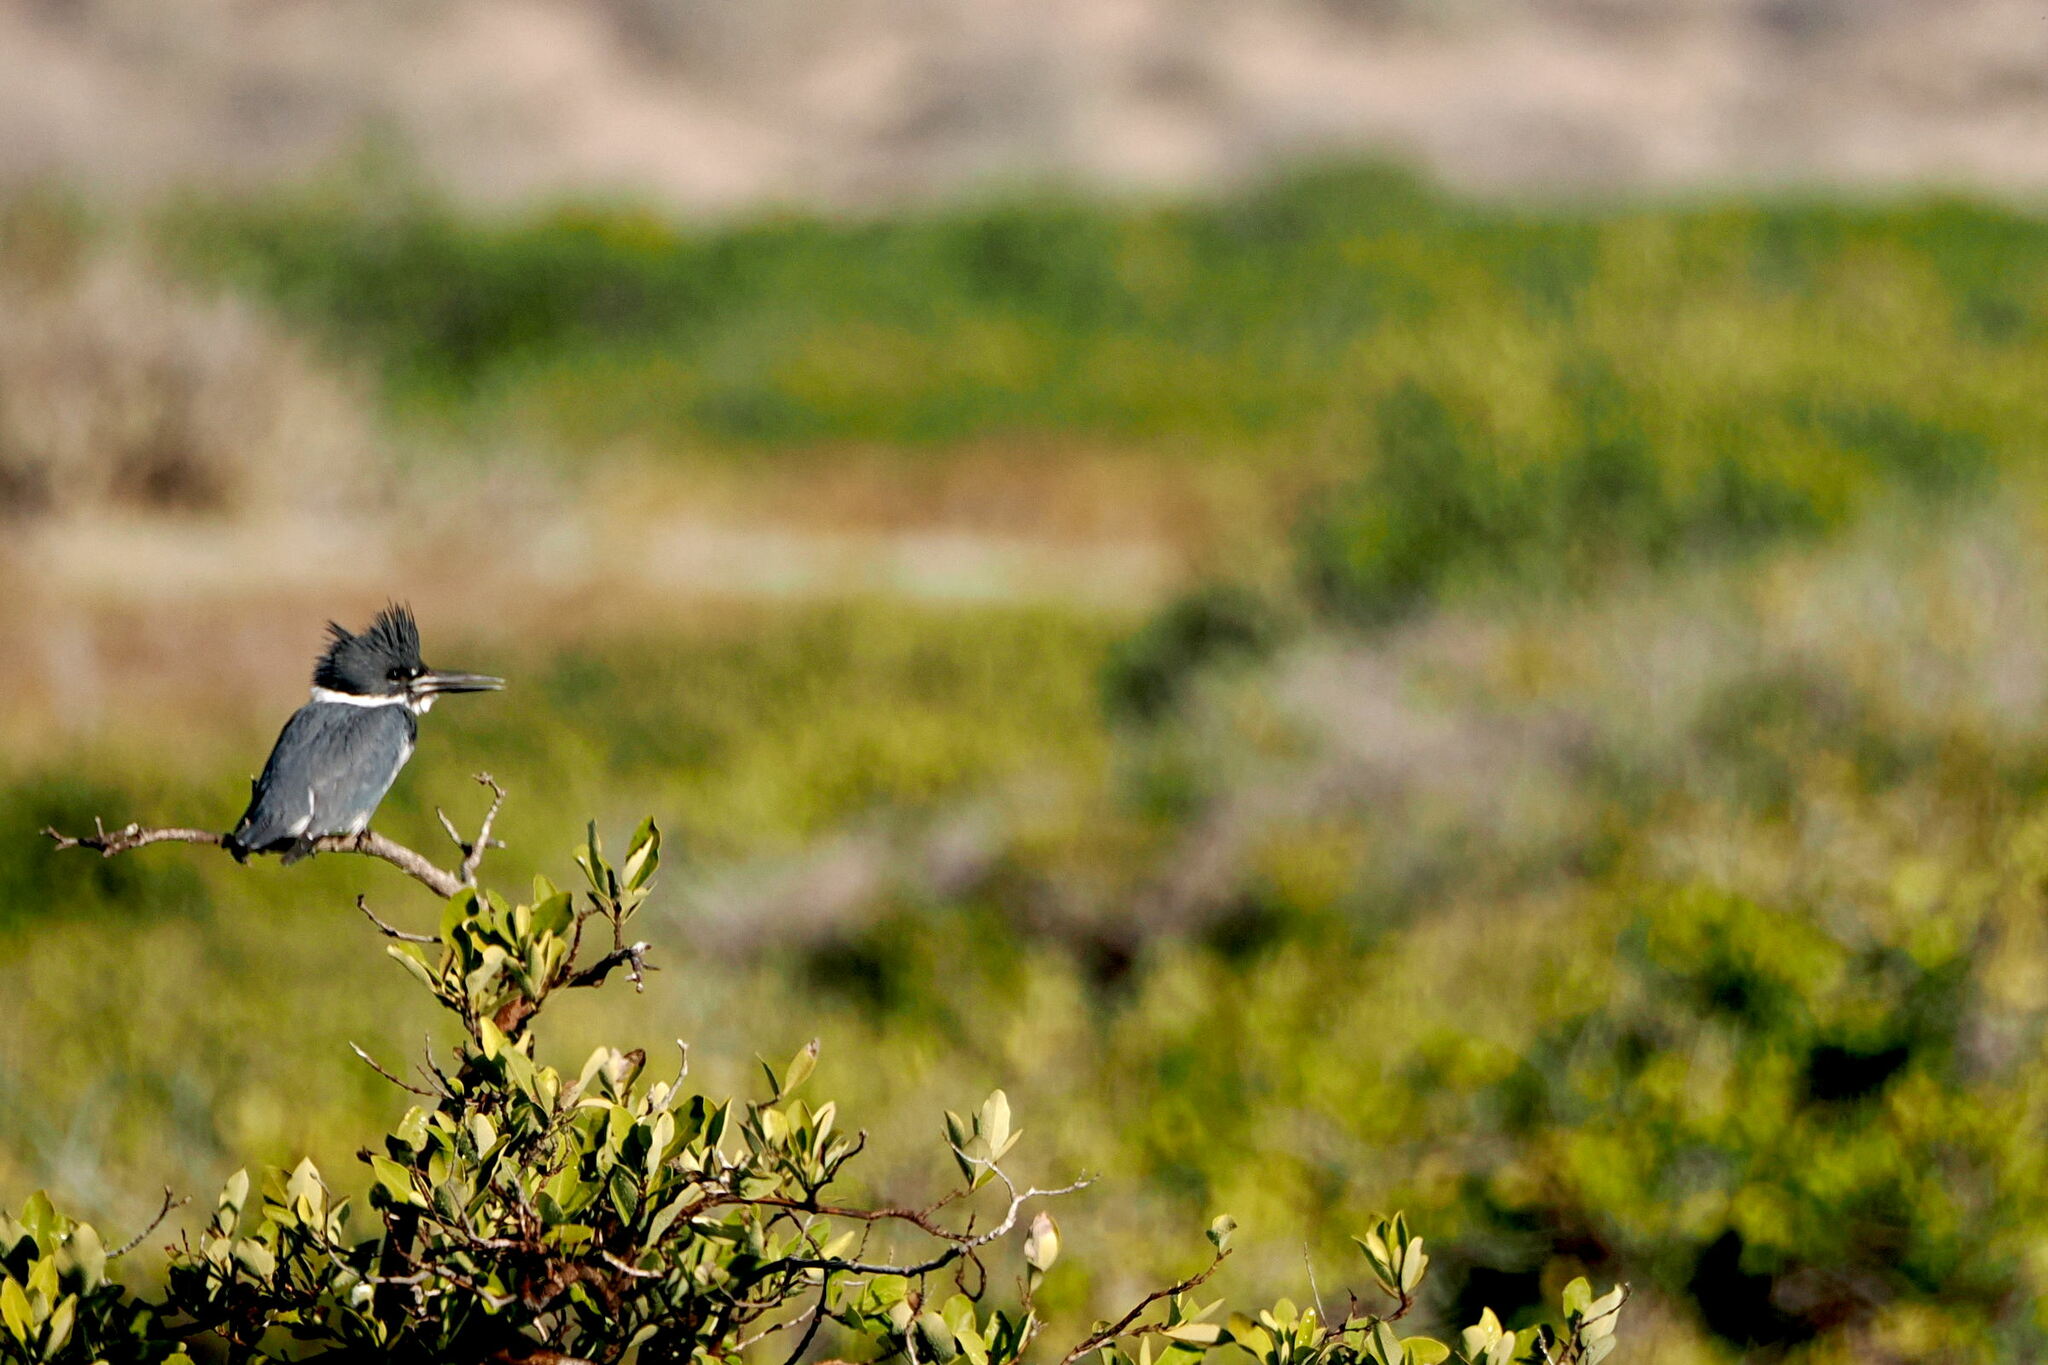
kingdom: Animalia
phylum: Chordata
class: Aves
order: Coraciiformes
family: Alcedinidae
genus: Megaceryle
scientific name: Megaceryle alcyon
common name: Belted kingfisher
